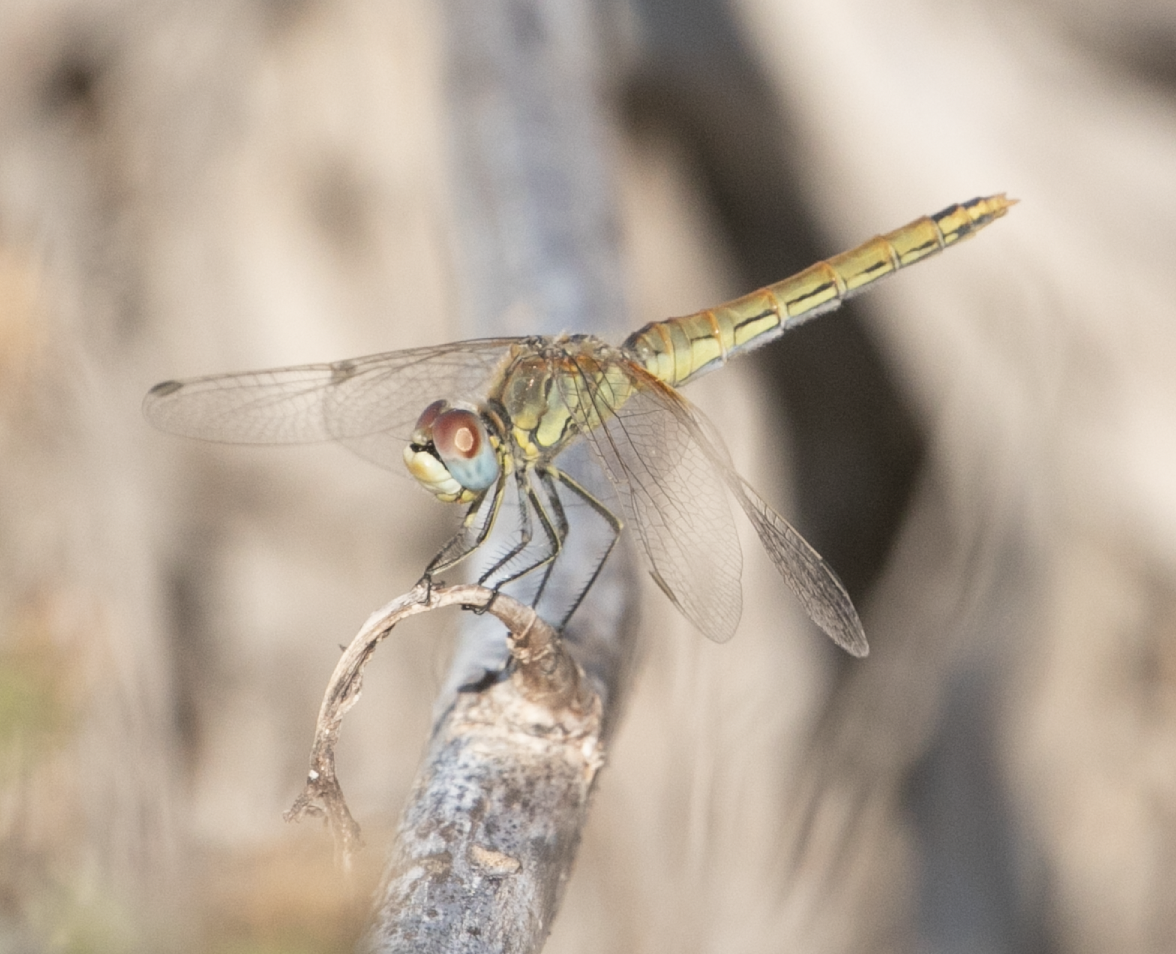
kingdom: Animalia
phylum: Arthropoda
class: Insecta
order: Odonata
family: Libellulidae
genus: Sympetrum
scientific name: Sympetrum fonscolombii
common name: Red-veined darter
